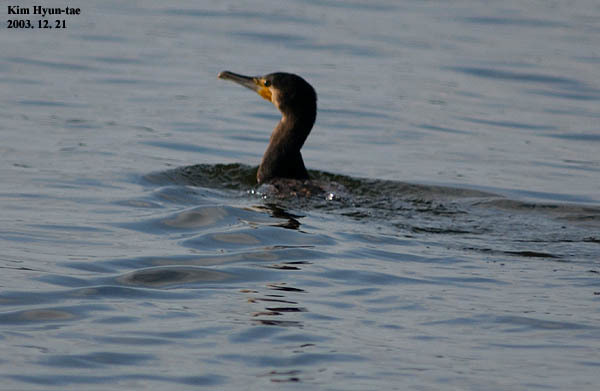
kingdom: Animalia
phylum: Chordata
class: Aves
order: Suliformes
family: Phalacrocoracidae
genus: Phalacrocorax
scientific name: Phalacrocorax carbo
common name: Great cormorant
